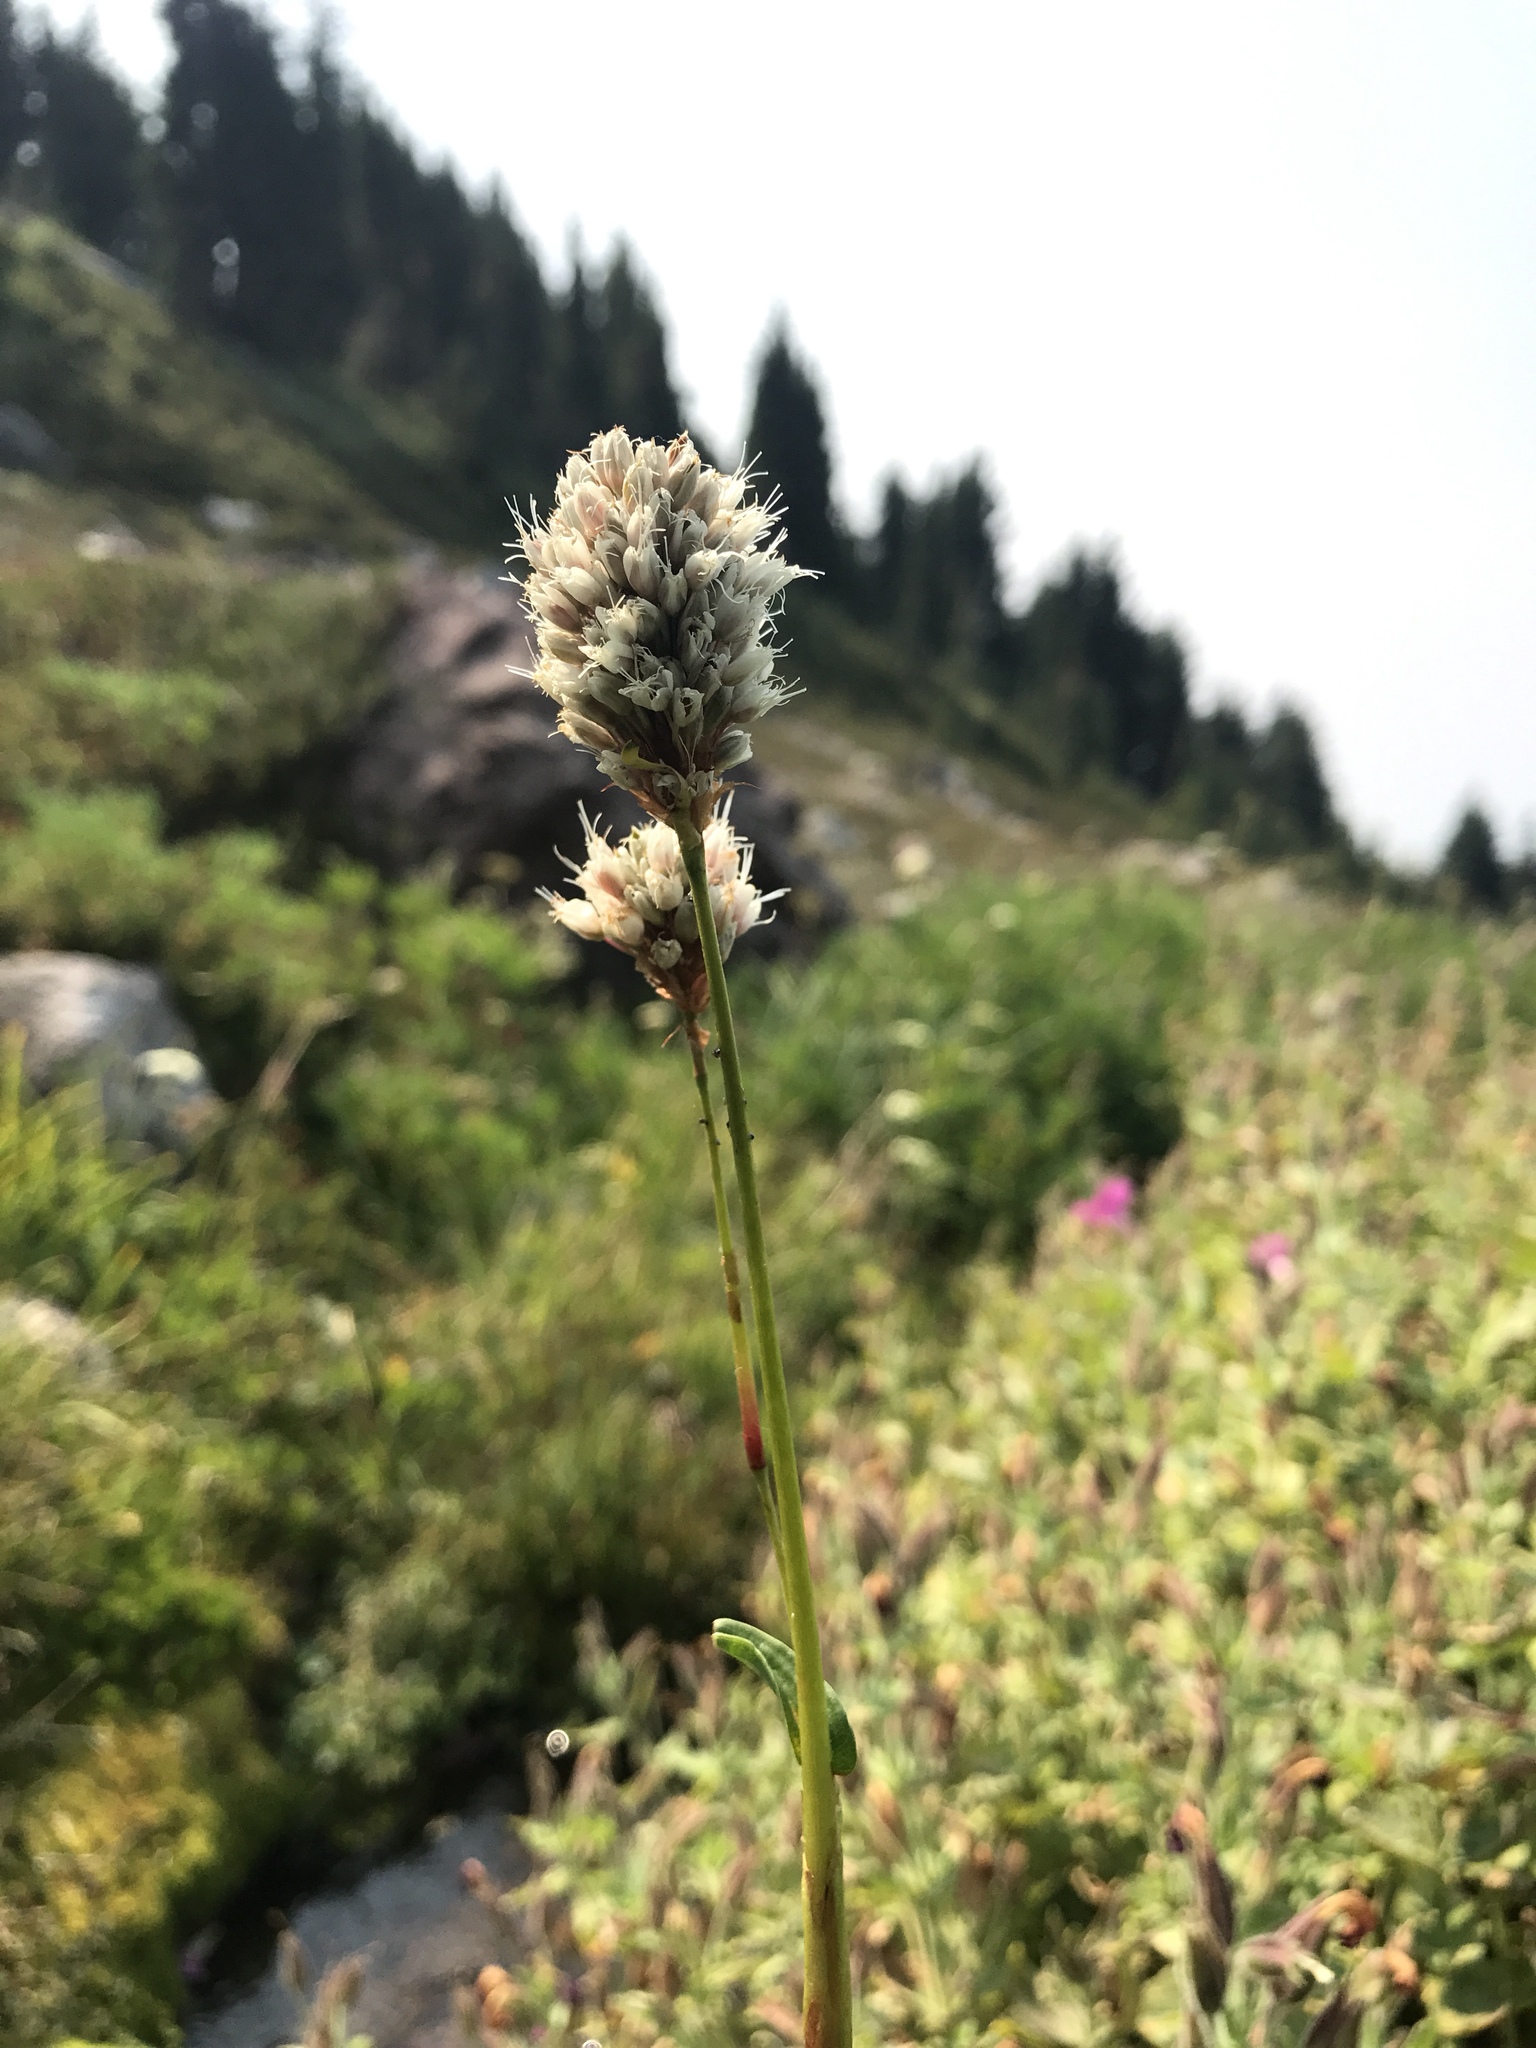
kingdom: Plantae
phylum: Tracheophyta
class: Magnoliopsida
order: Caryophyllales
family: Polygonaceae
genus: Bistorta
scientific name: Bistorta bistortoides
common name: American bistort
